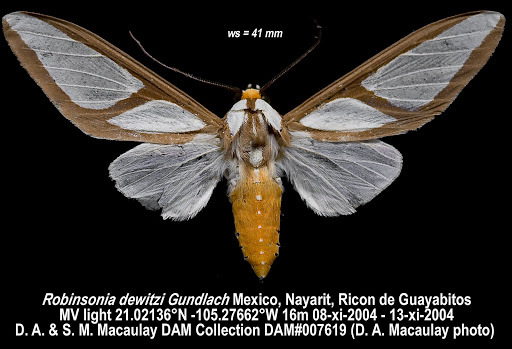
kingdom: Animalia
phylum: Arthropoda
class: Insecta
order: Lepidoptera
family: Erebidae
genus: Robinsonia
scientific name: Robinsonia dewitzi
